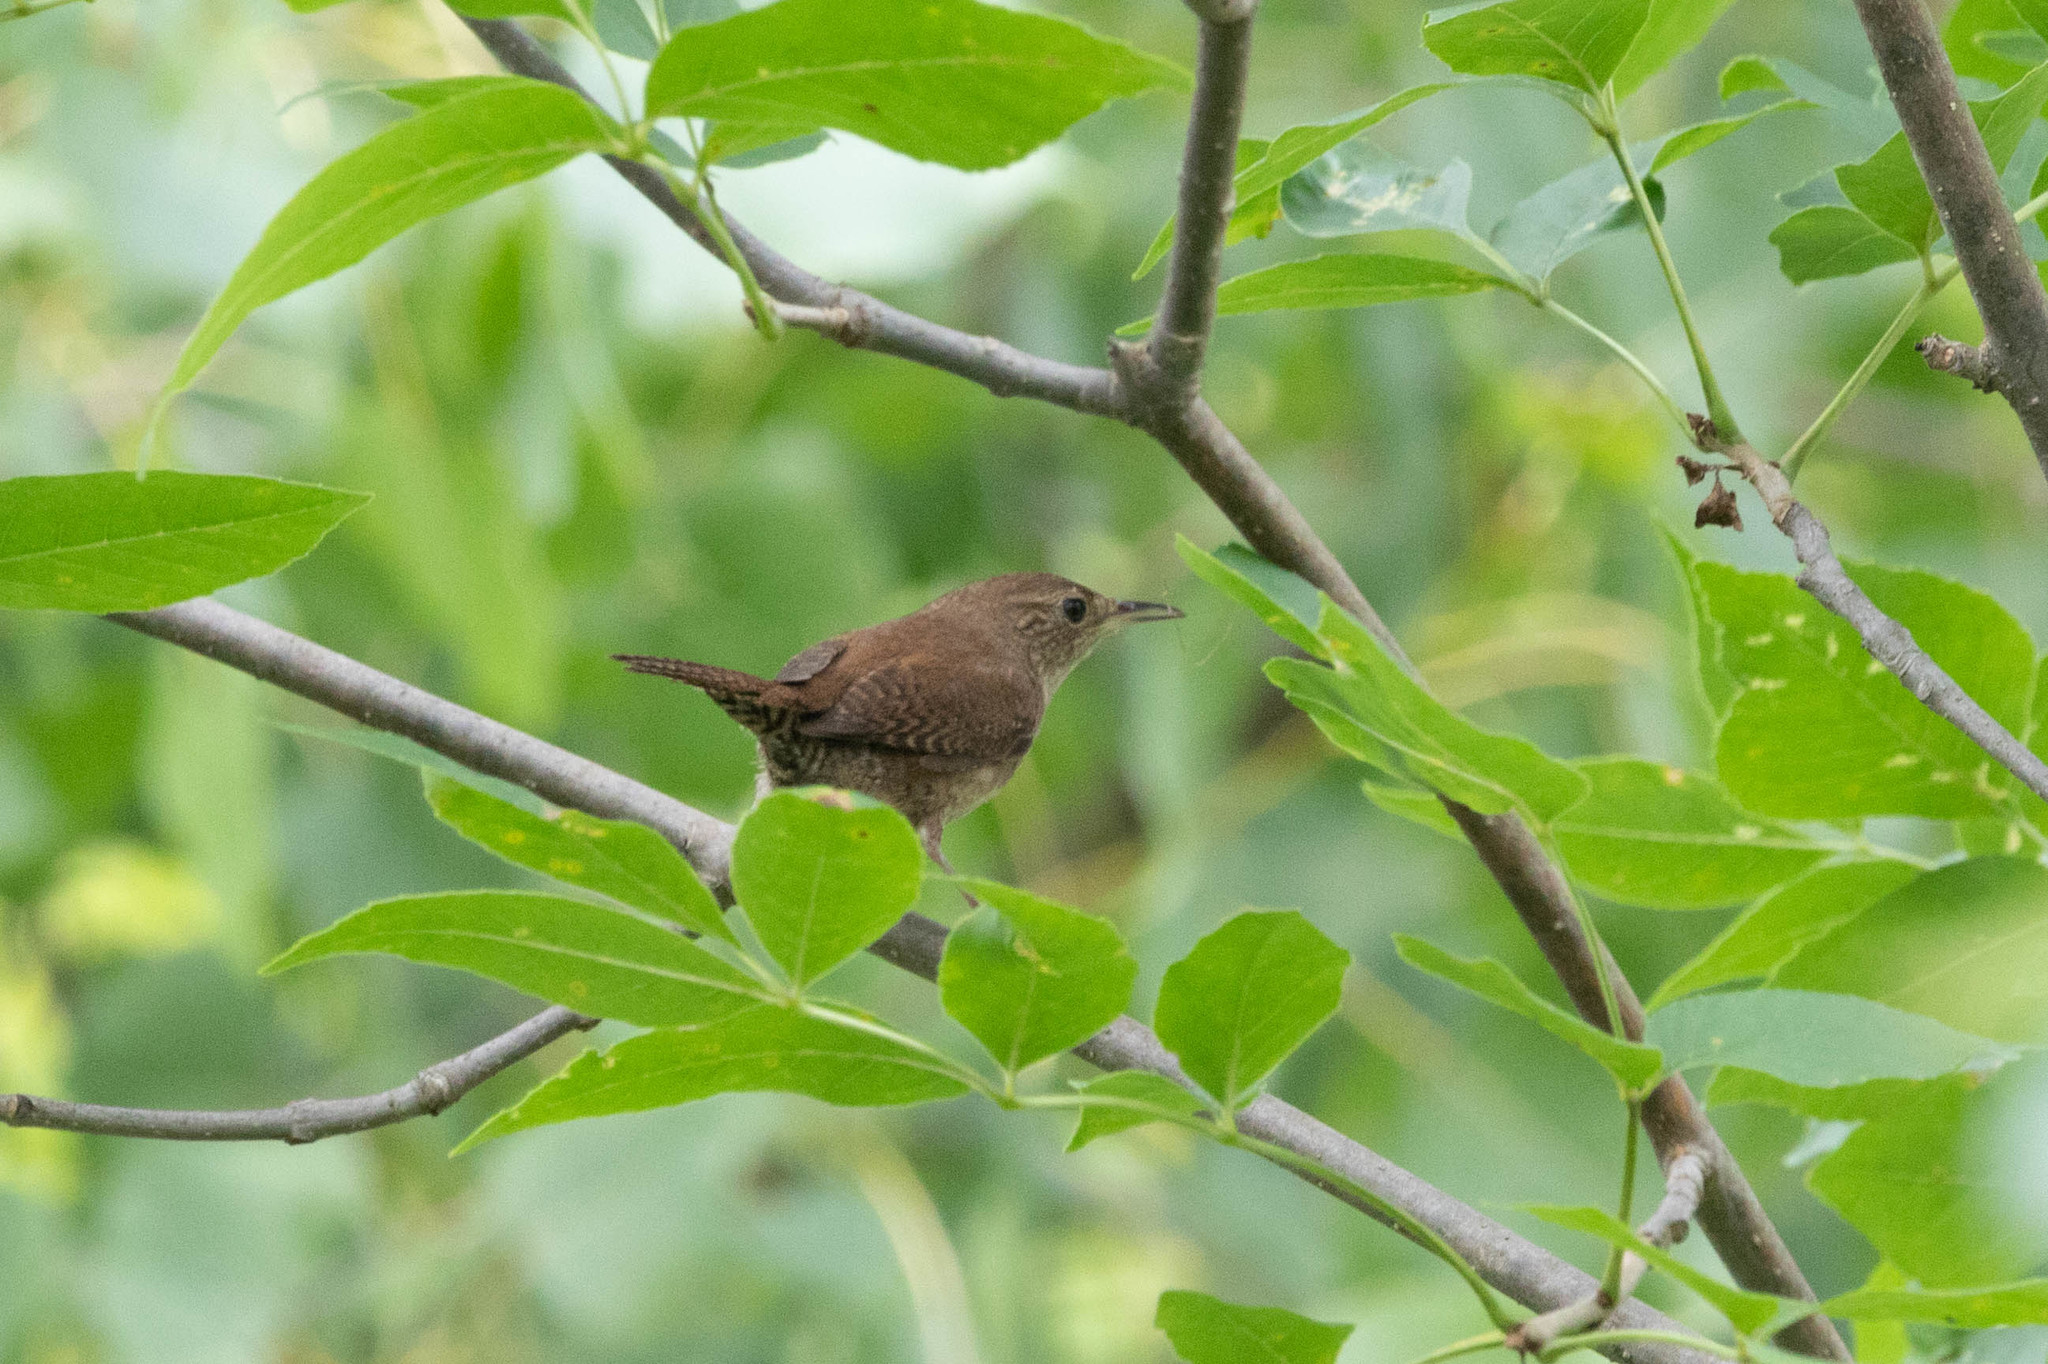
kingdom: Animalia
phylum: Chordata
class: Aves
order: Passeriformes
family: Troglodytidae
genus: Troglodytes
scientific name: Troglodytes aedon
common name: House wren
